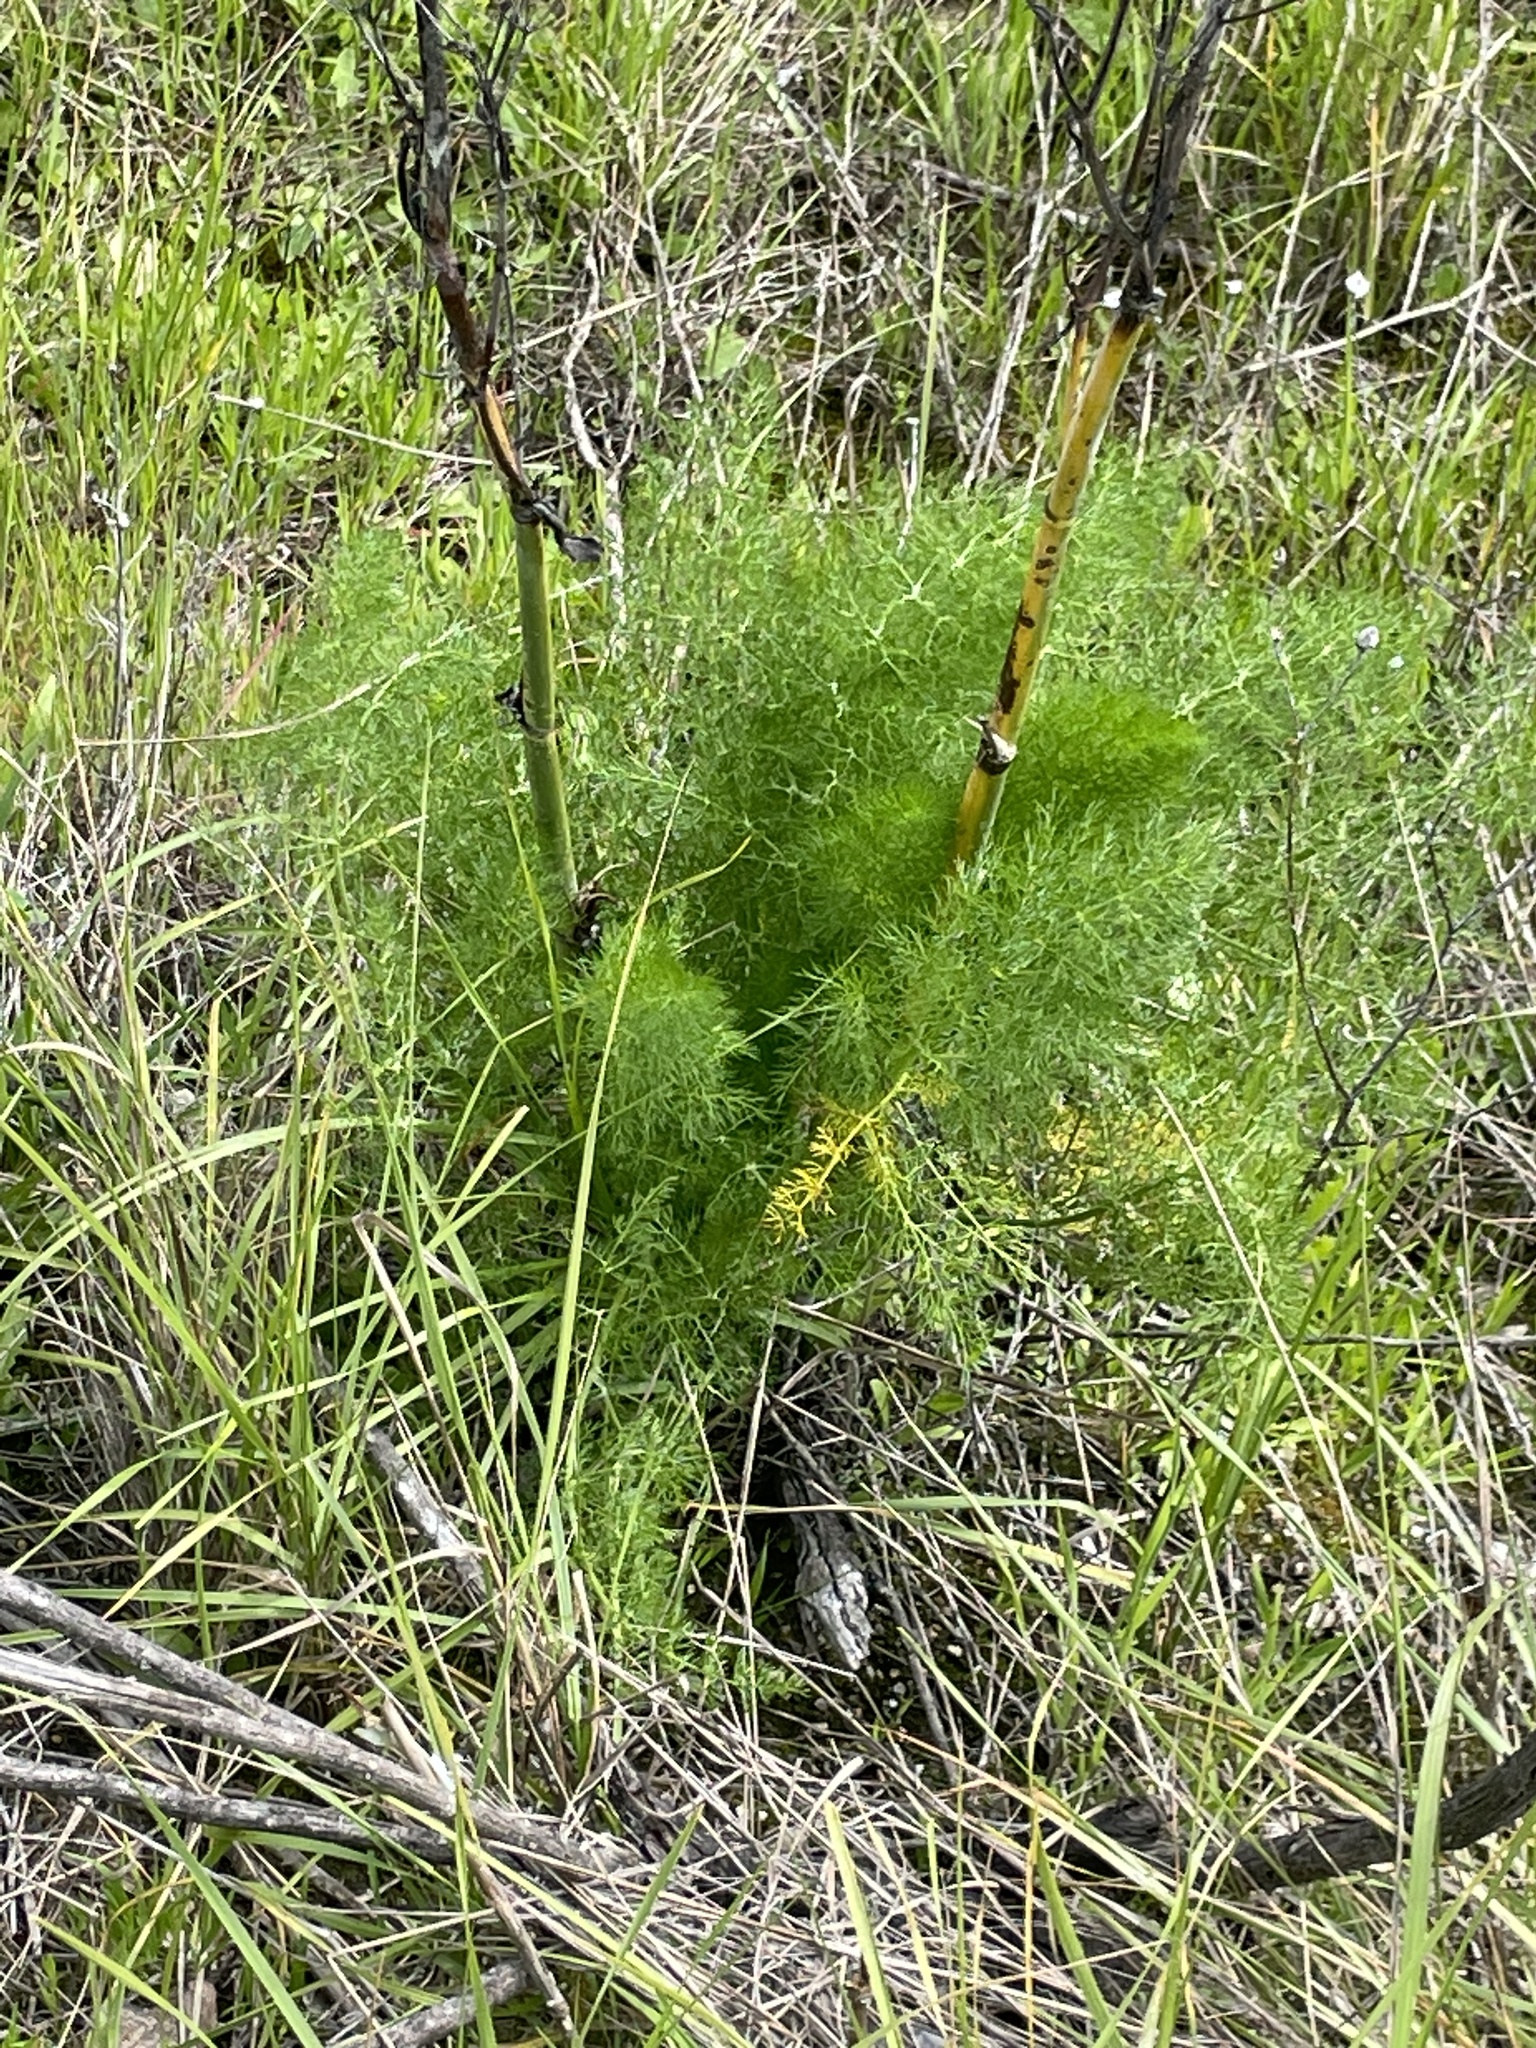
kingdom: Plantae
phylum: Tracheophyta
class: Magnoliopsida
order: Apiales
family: Apiaceae
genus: Foeniculum
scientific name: Foeniculum vulgare
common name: Fennel
